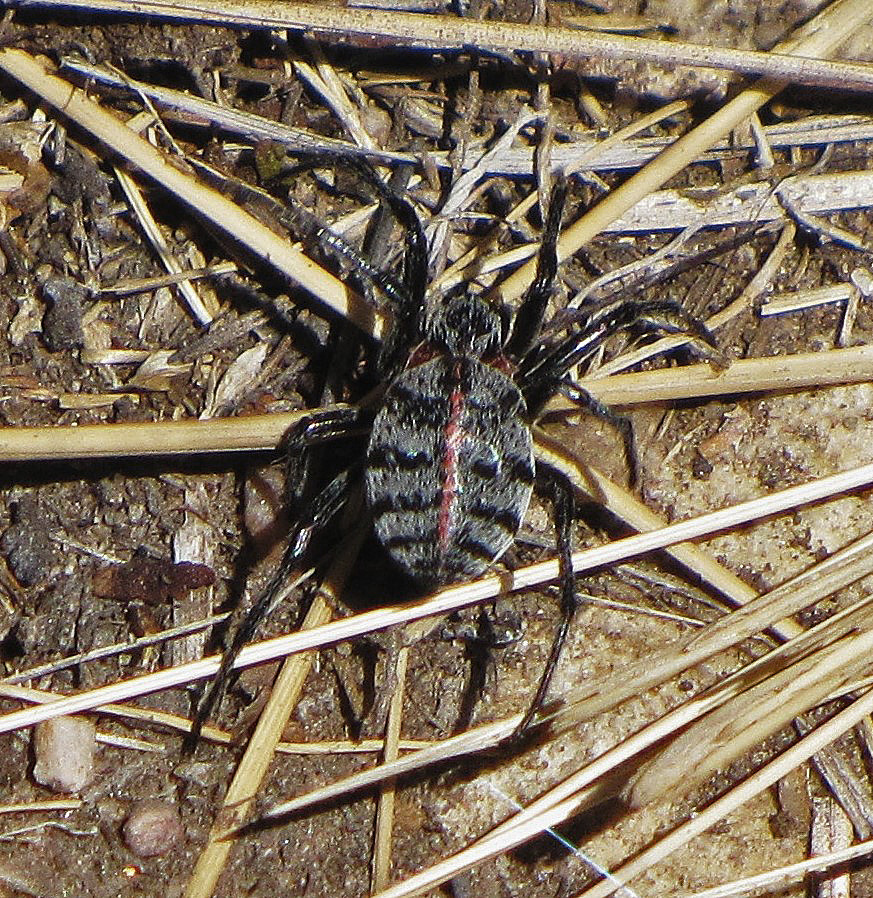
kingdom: Animalia
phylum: Arthropoda
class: Arachnida
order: Araneae
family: Araneidae
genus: Alpaida
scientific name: Alpaida versicolor
